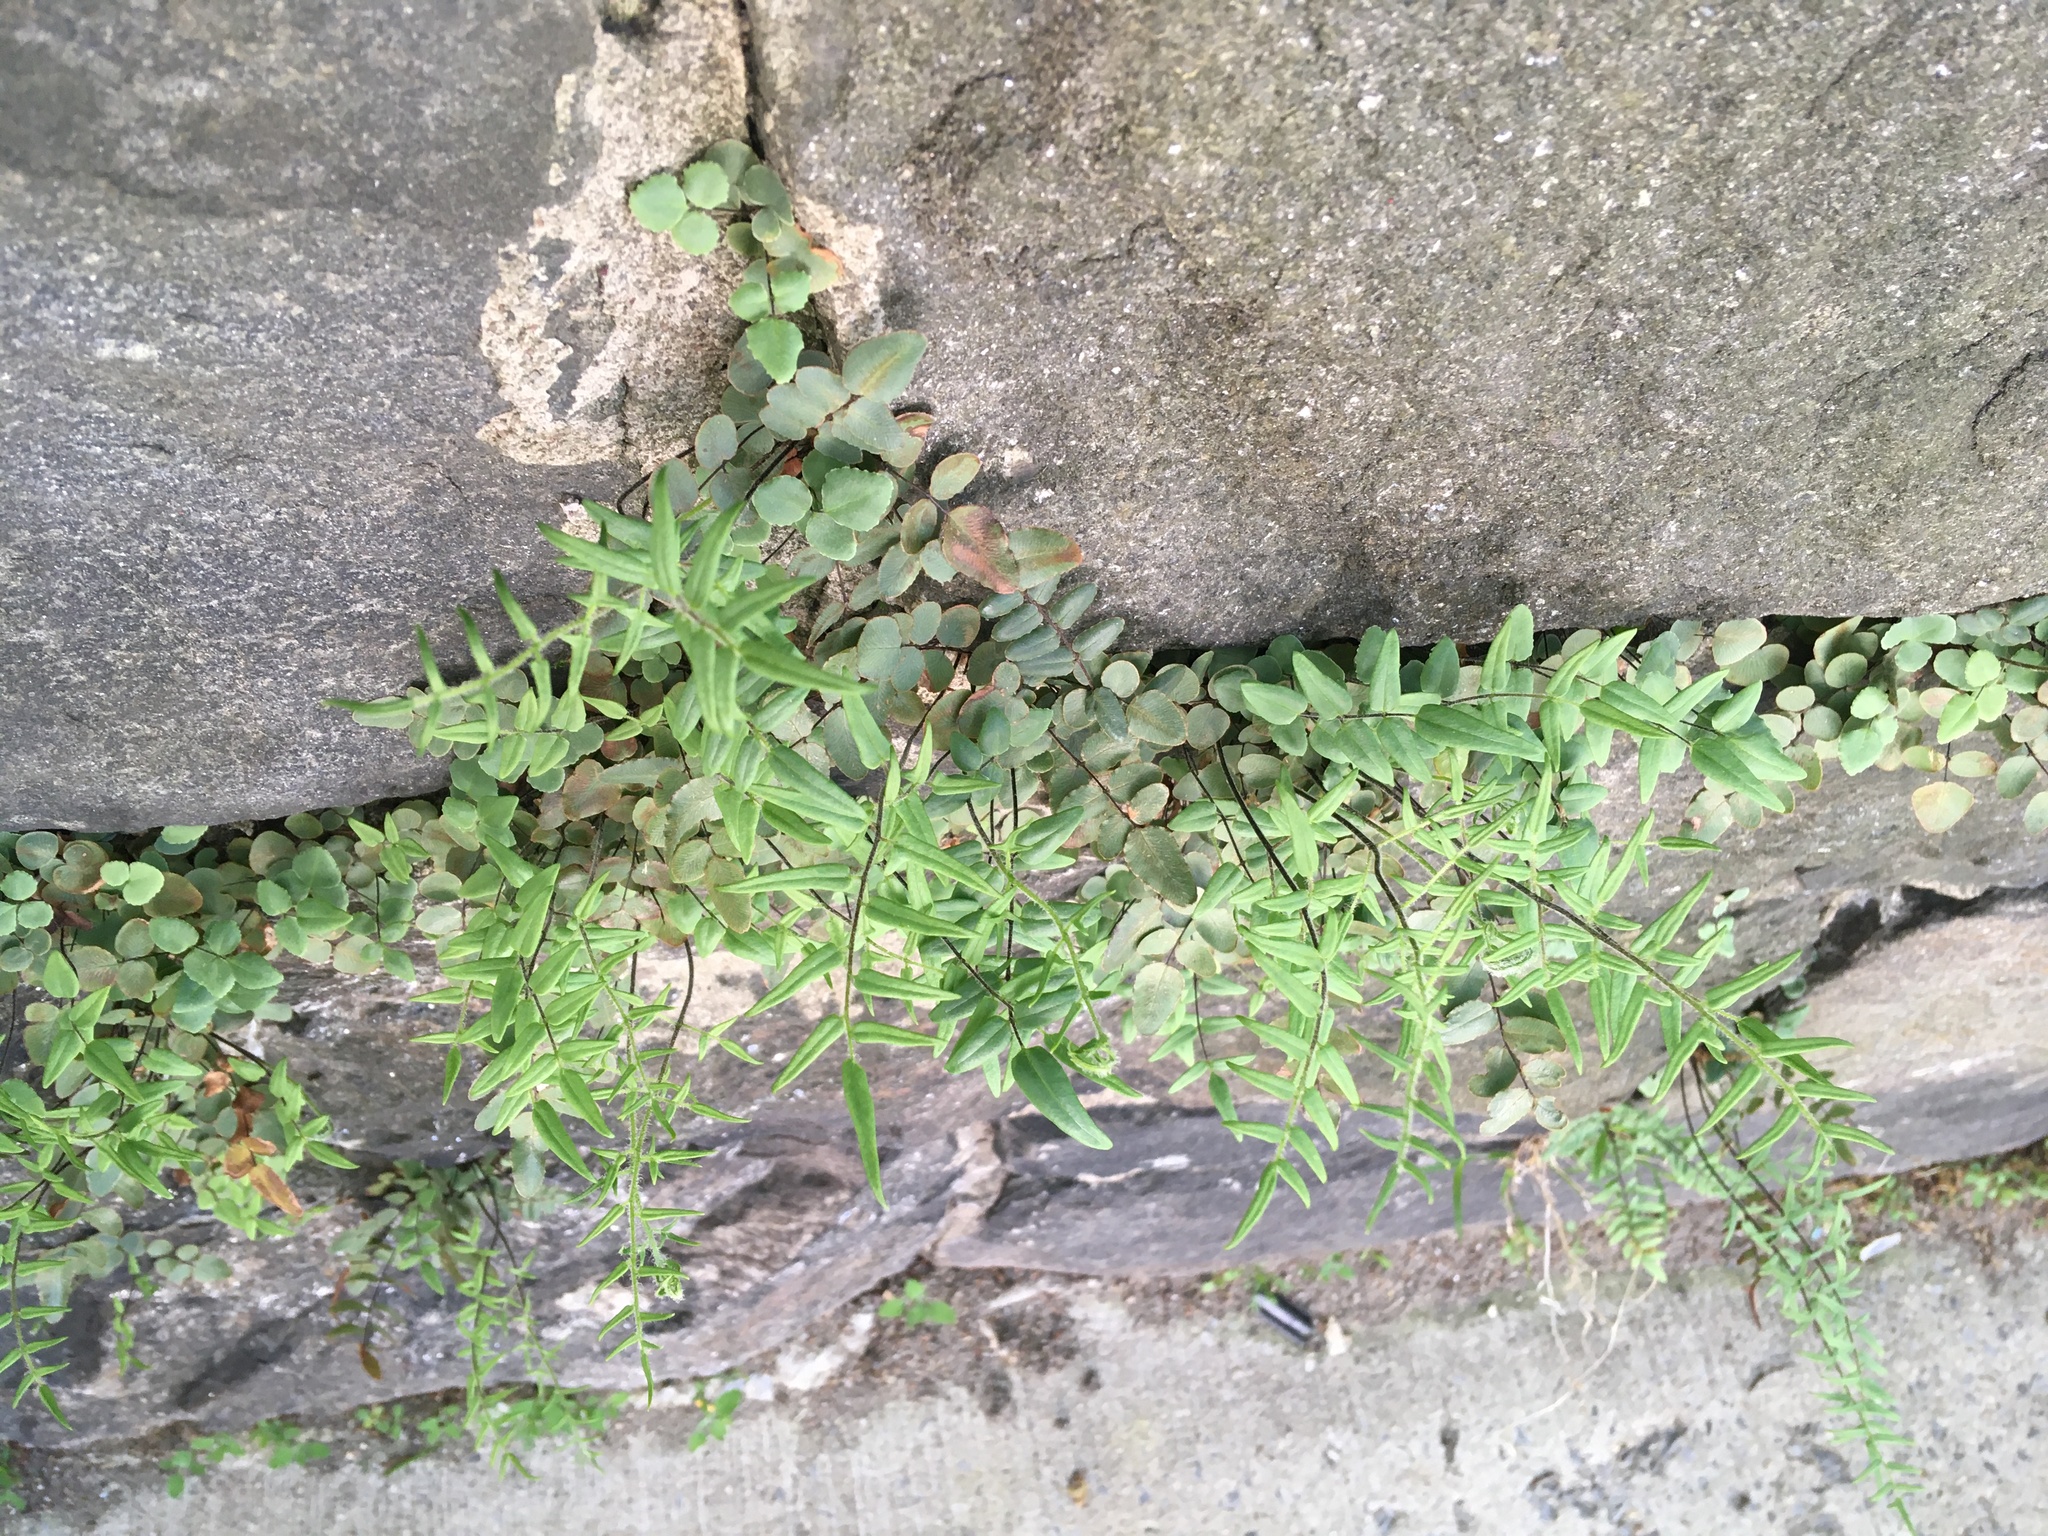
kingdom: Plantae
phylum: Tracheophyta
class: Polypodiopsida
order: Polypodiales
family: Pteridaceae
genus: Pellaea
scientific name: Pellaea atropurpurea
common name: Hairy cliffbrake
